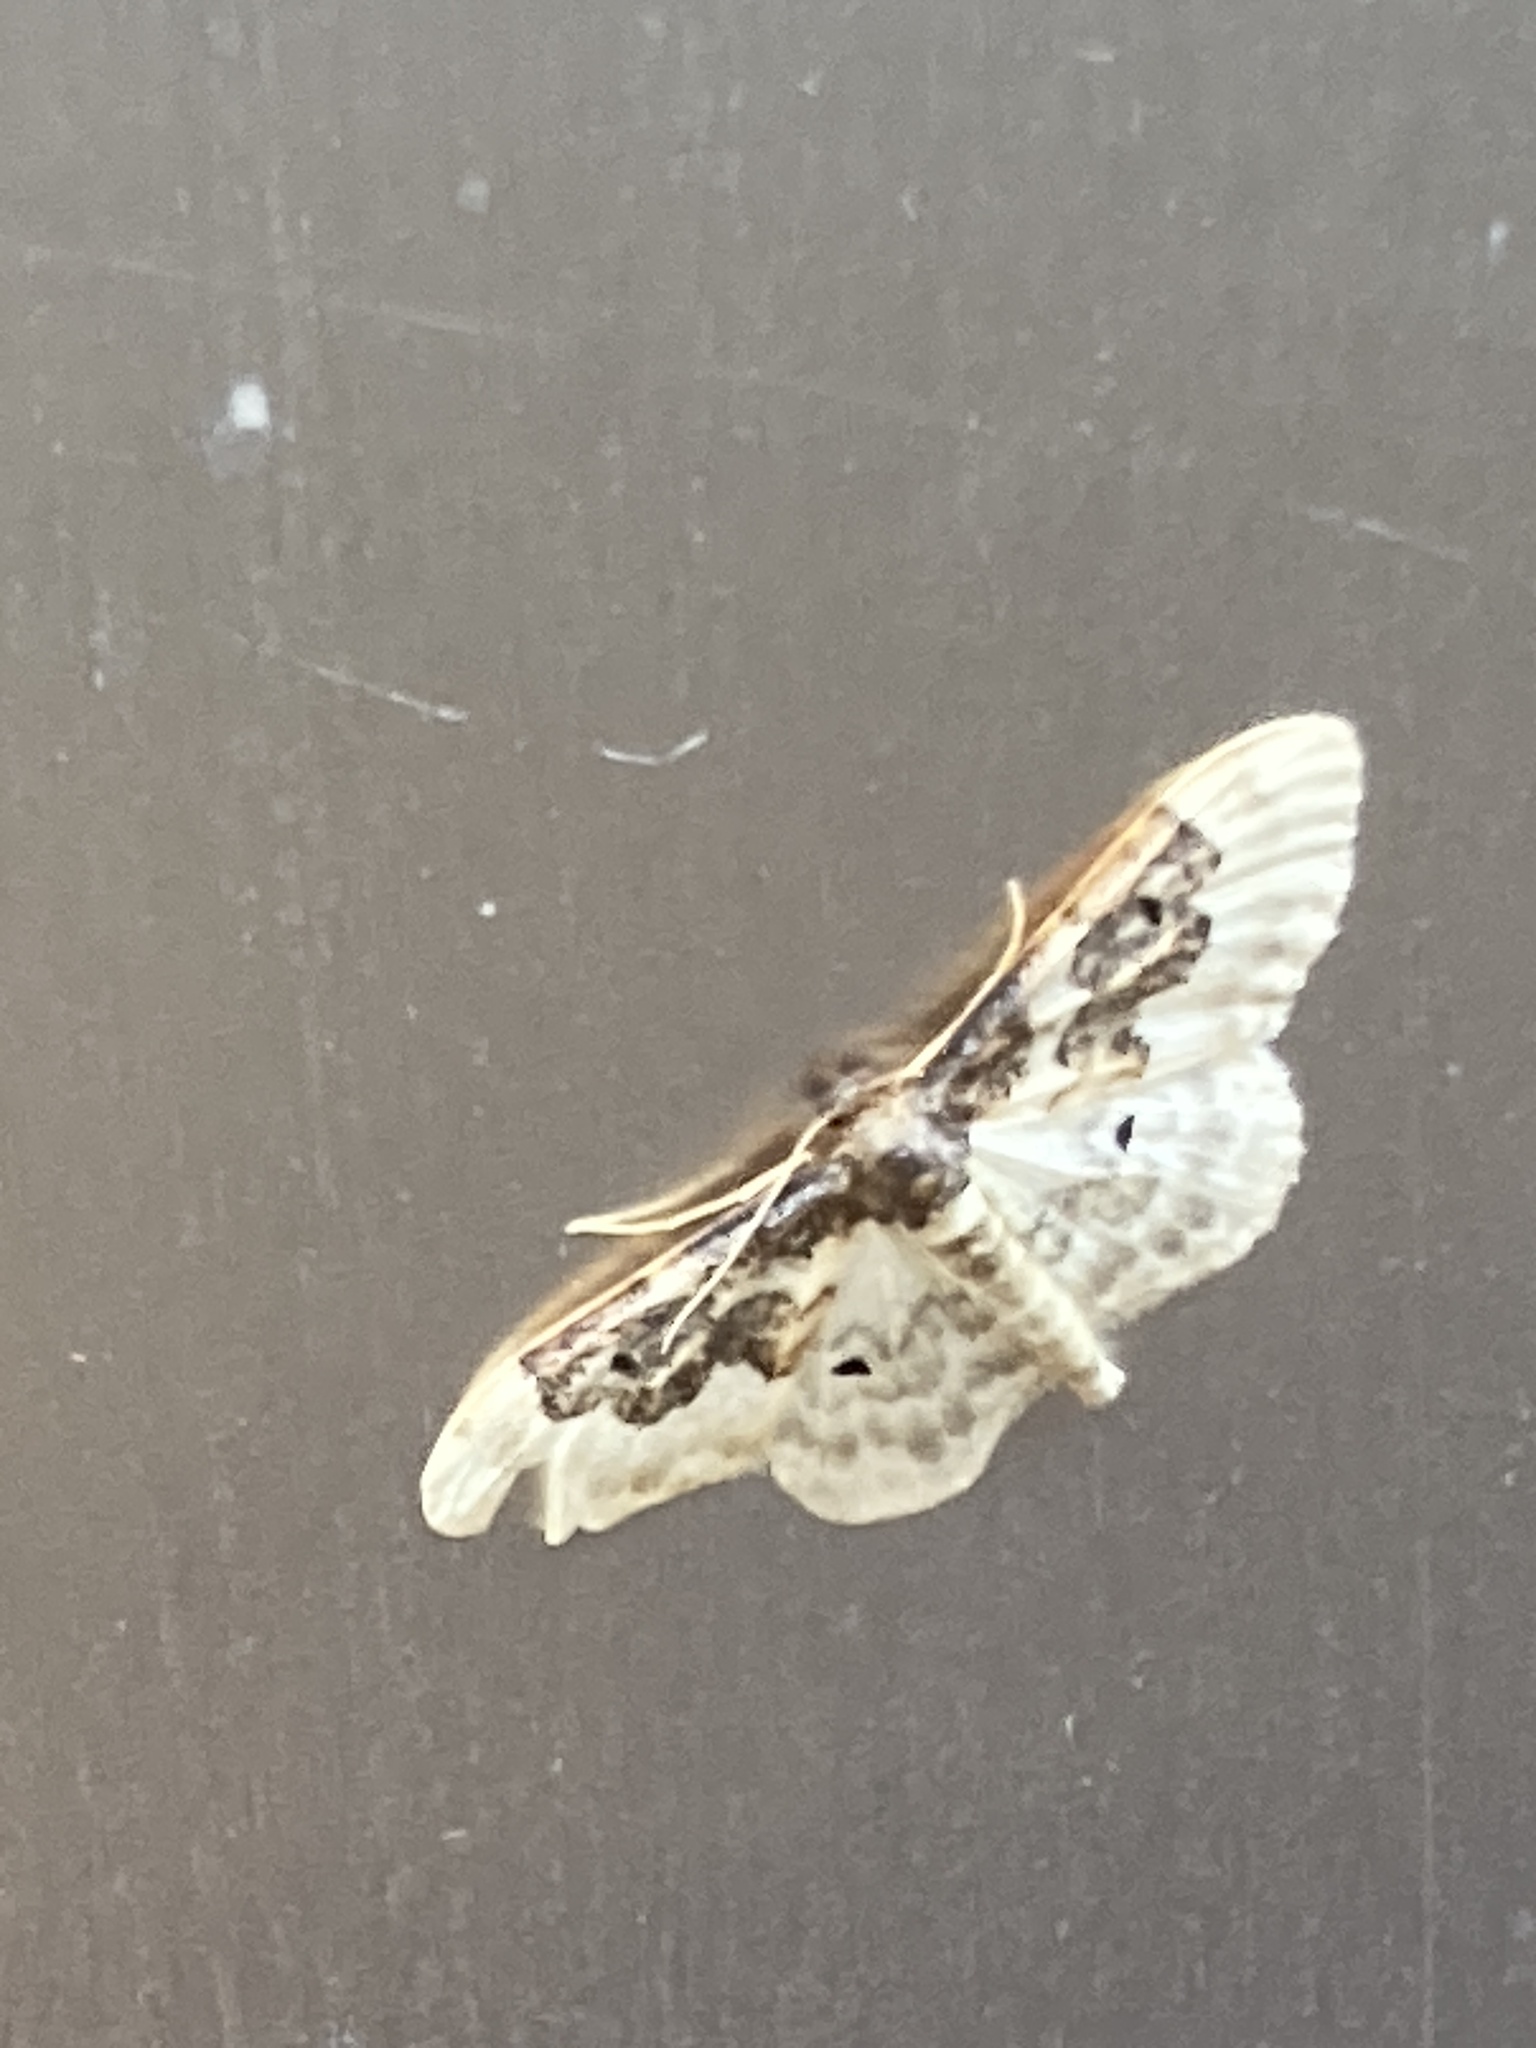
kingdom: Animalia
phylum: Arthropoda
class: Insecta
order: Lepidoptera
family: Geometridae
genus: Idaea
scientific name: Idaea rusticata
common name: Least carpet
